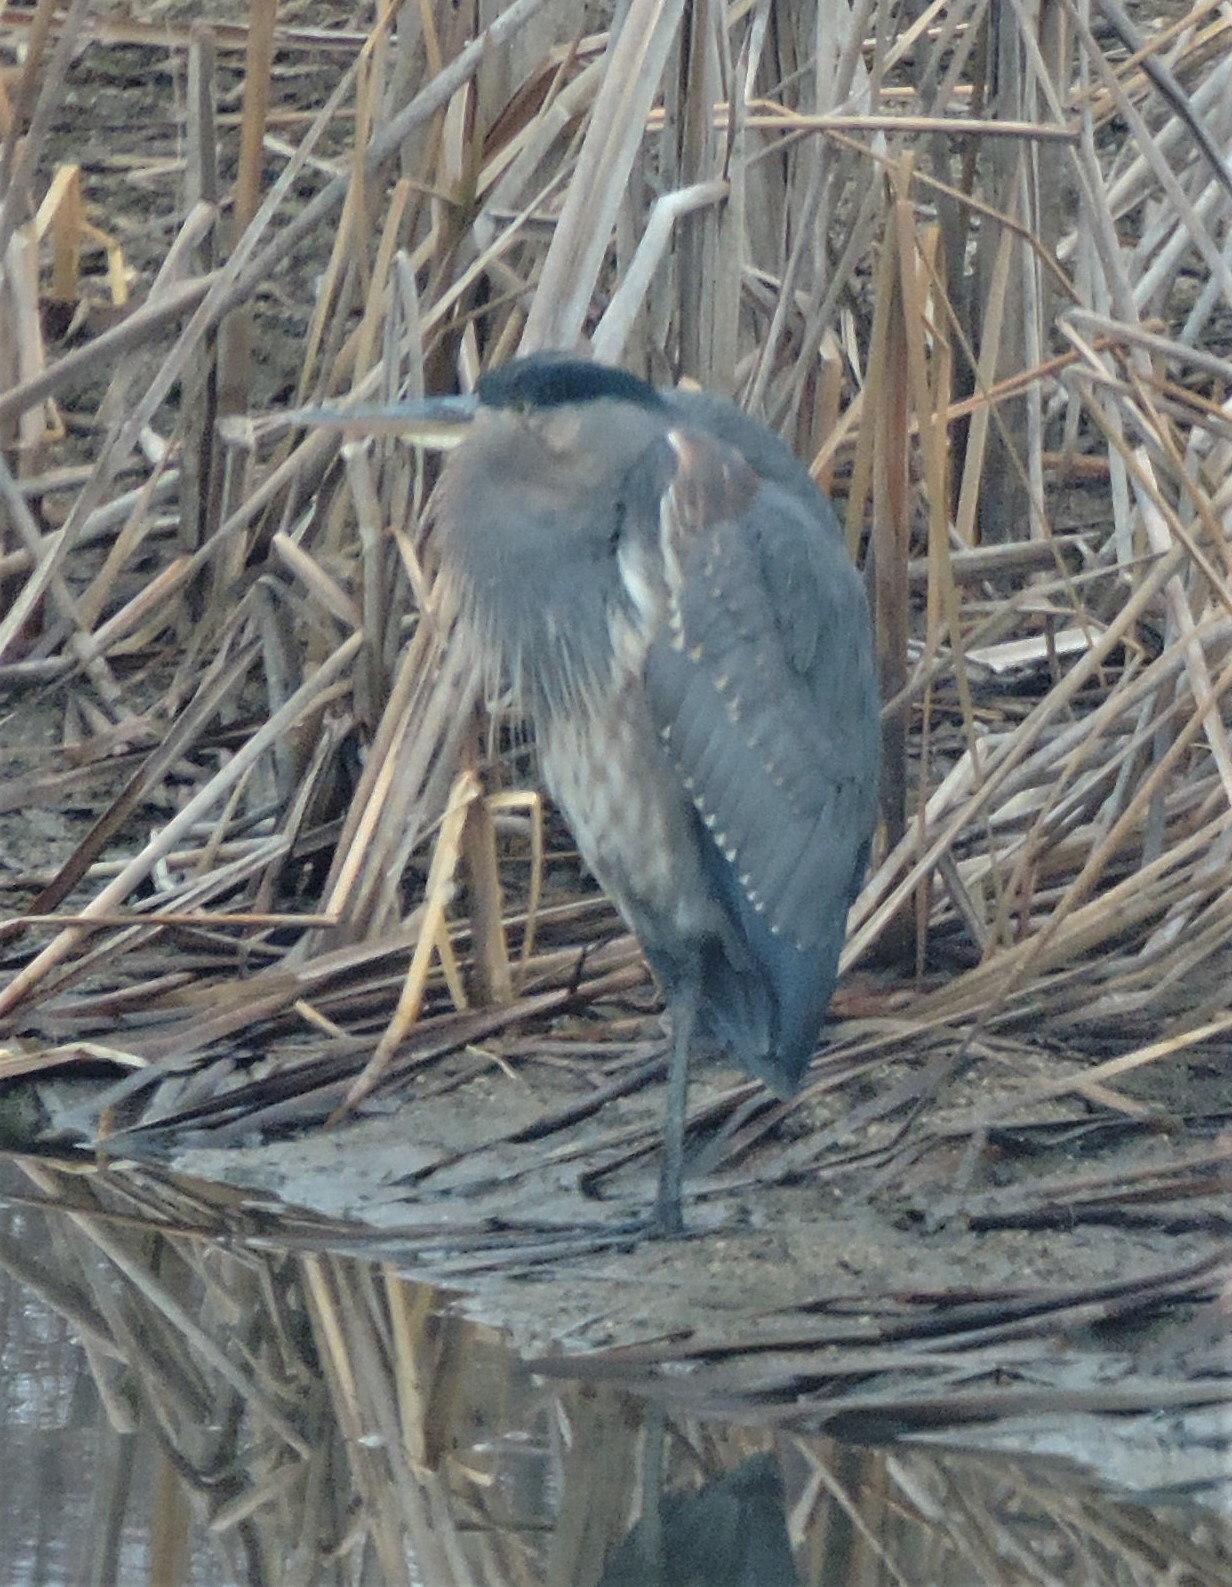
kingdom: Animalia
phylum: Chordata
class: Aves
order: Pelecaniformes
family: Ardeidae
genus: Ardea
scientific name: Ardea herodias
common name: Great blue heron
